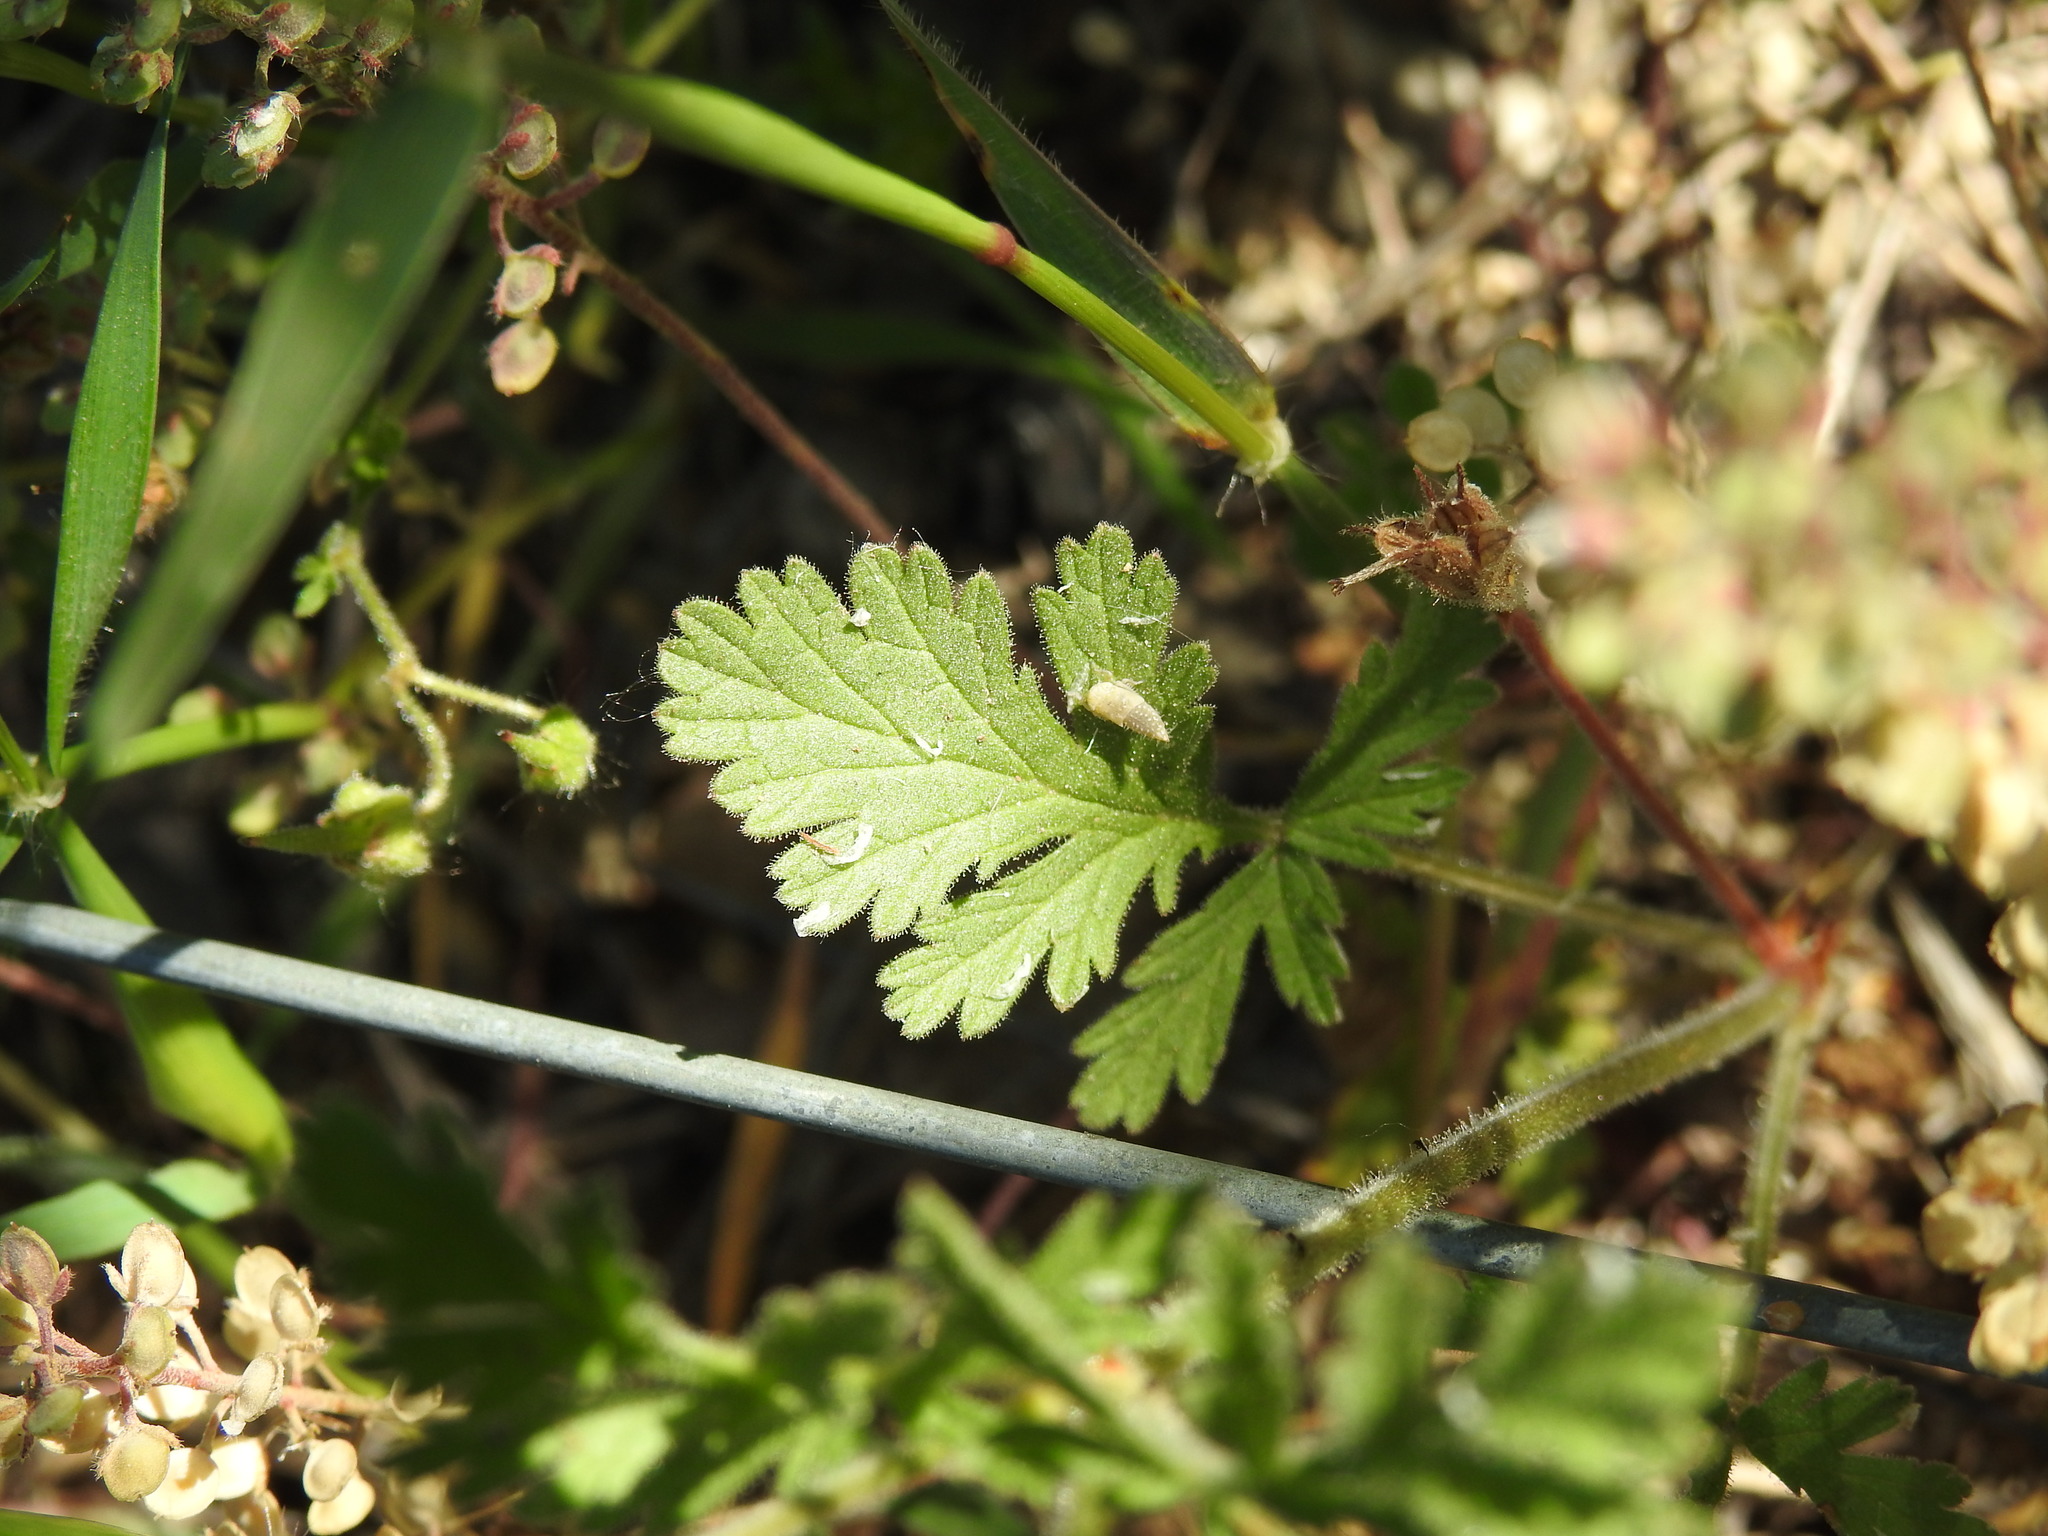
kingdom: Plantae
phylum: Tracheophyta
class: Magnoliopsida
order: Geraniales
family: Geraniaceae
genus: Erodium
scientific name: Erodium ciconium
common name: Common stork's bill
